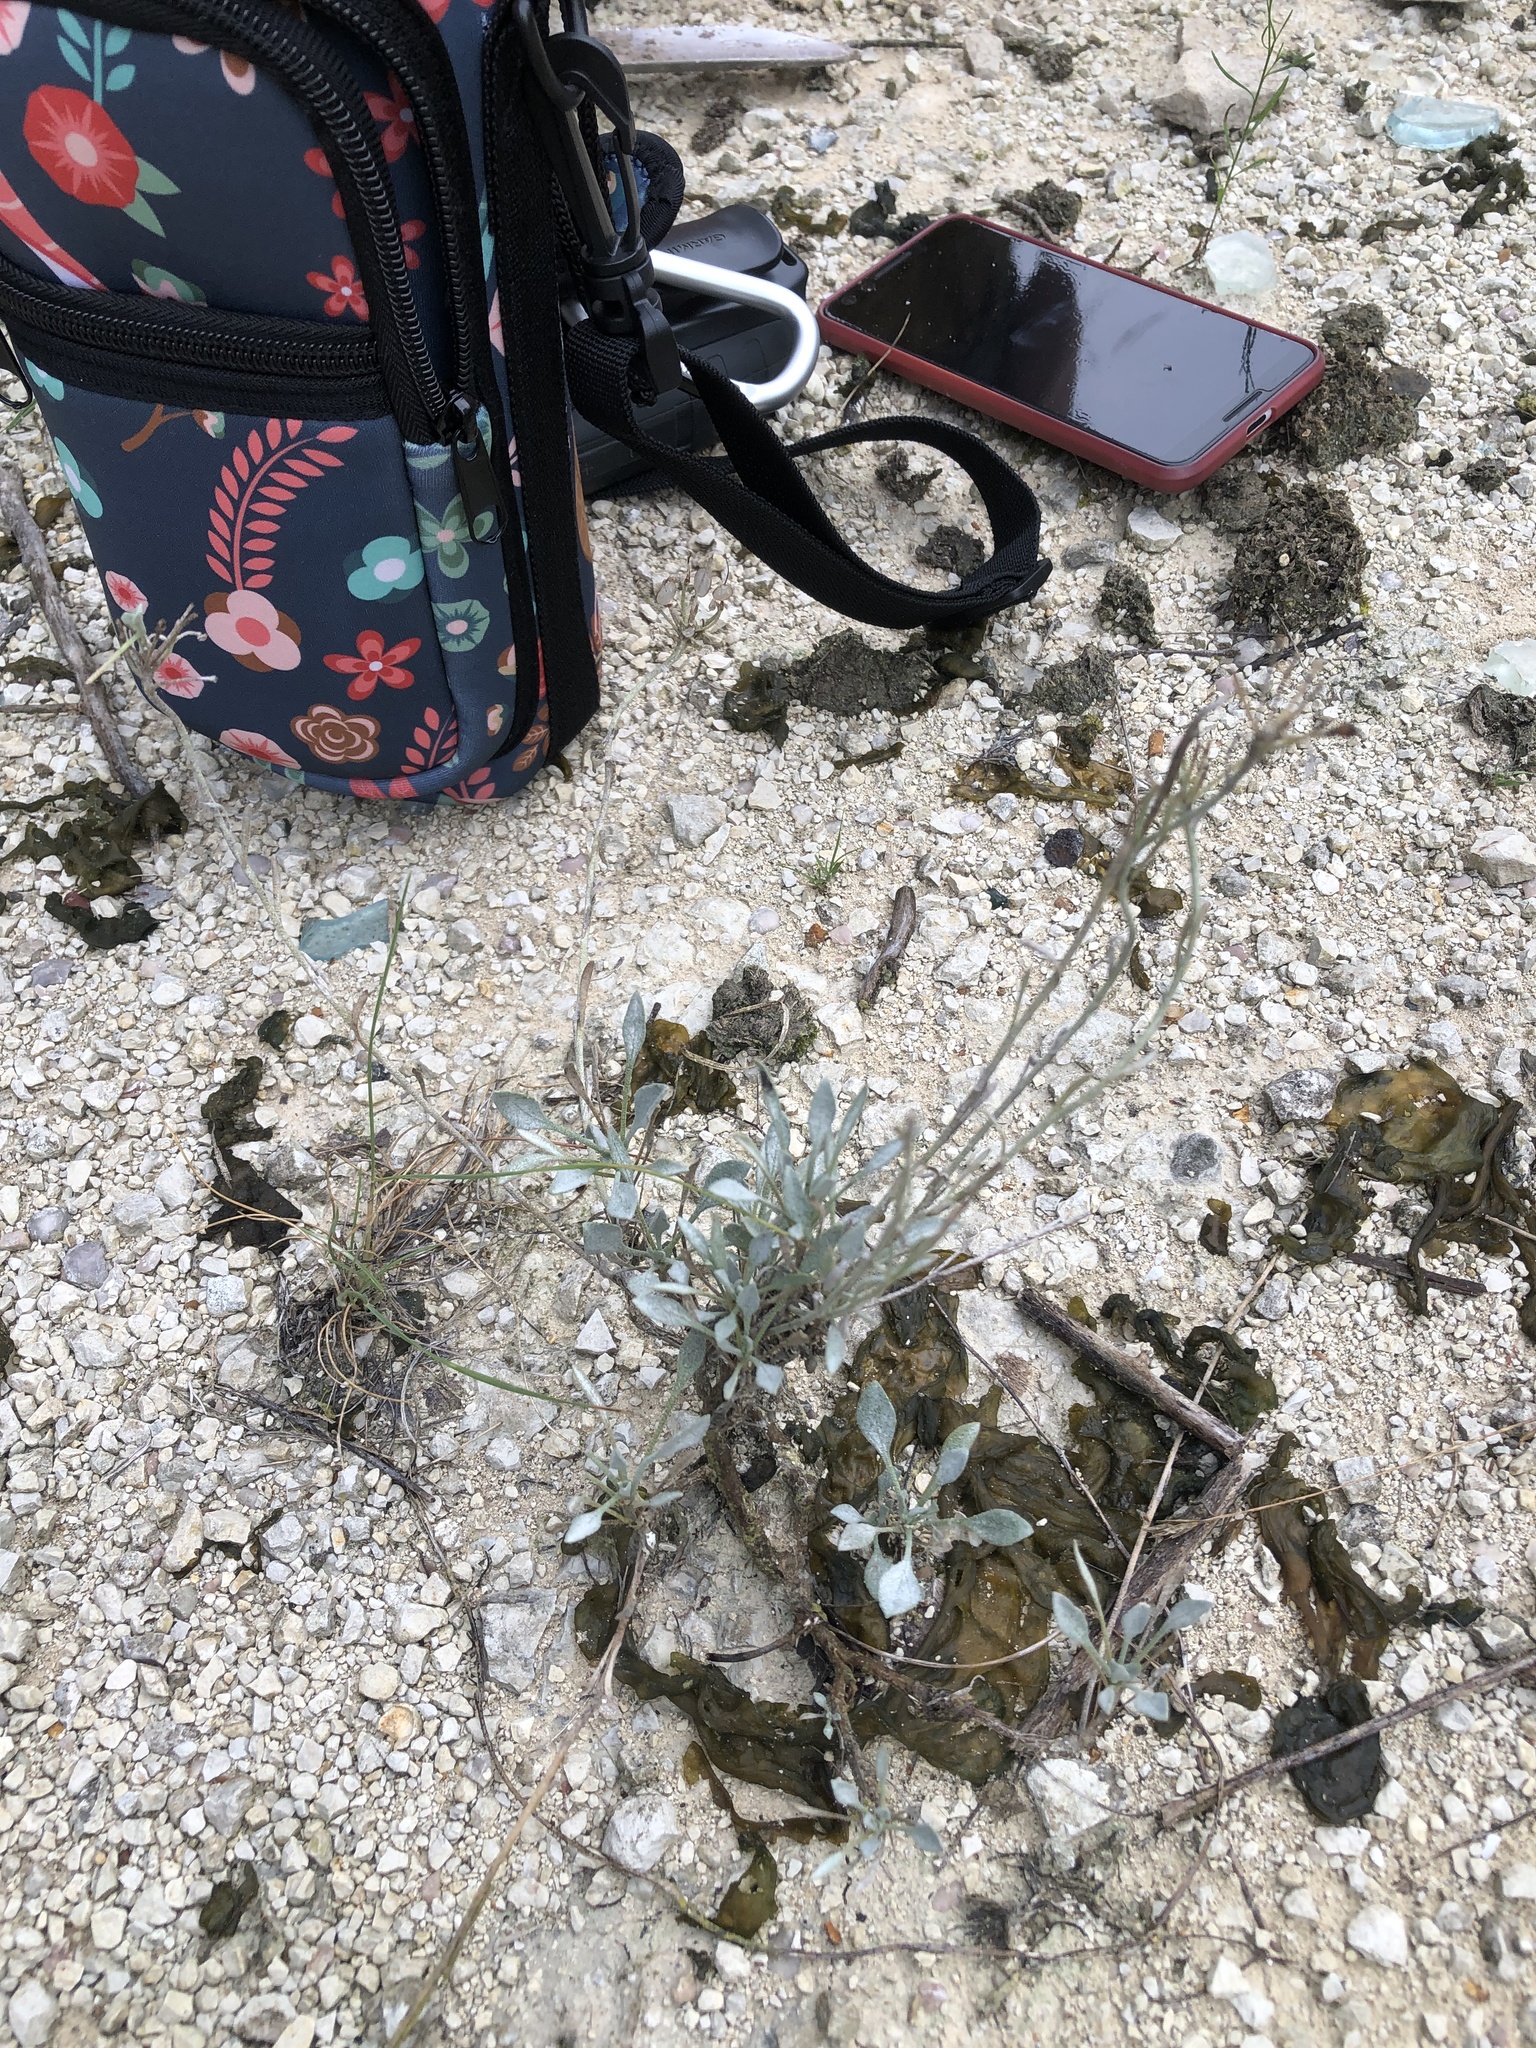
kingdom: Plantae
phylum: Tracheophyta
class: Magnoliopsida
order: Brassicales
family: Brassicaceae
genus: Physaria
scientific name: Physaria engelmannii
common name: Engelmann's bladderpod
